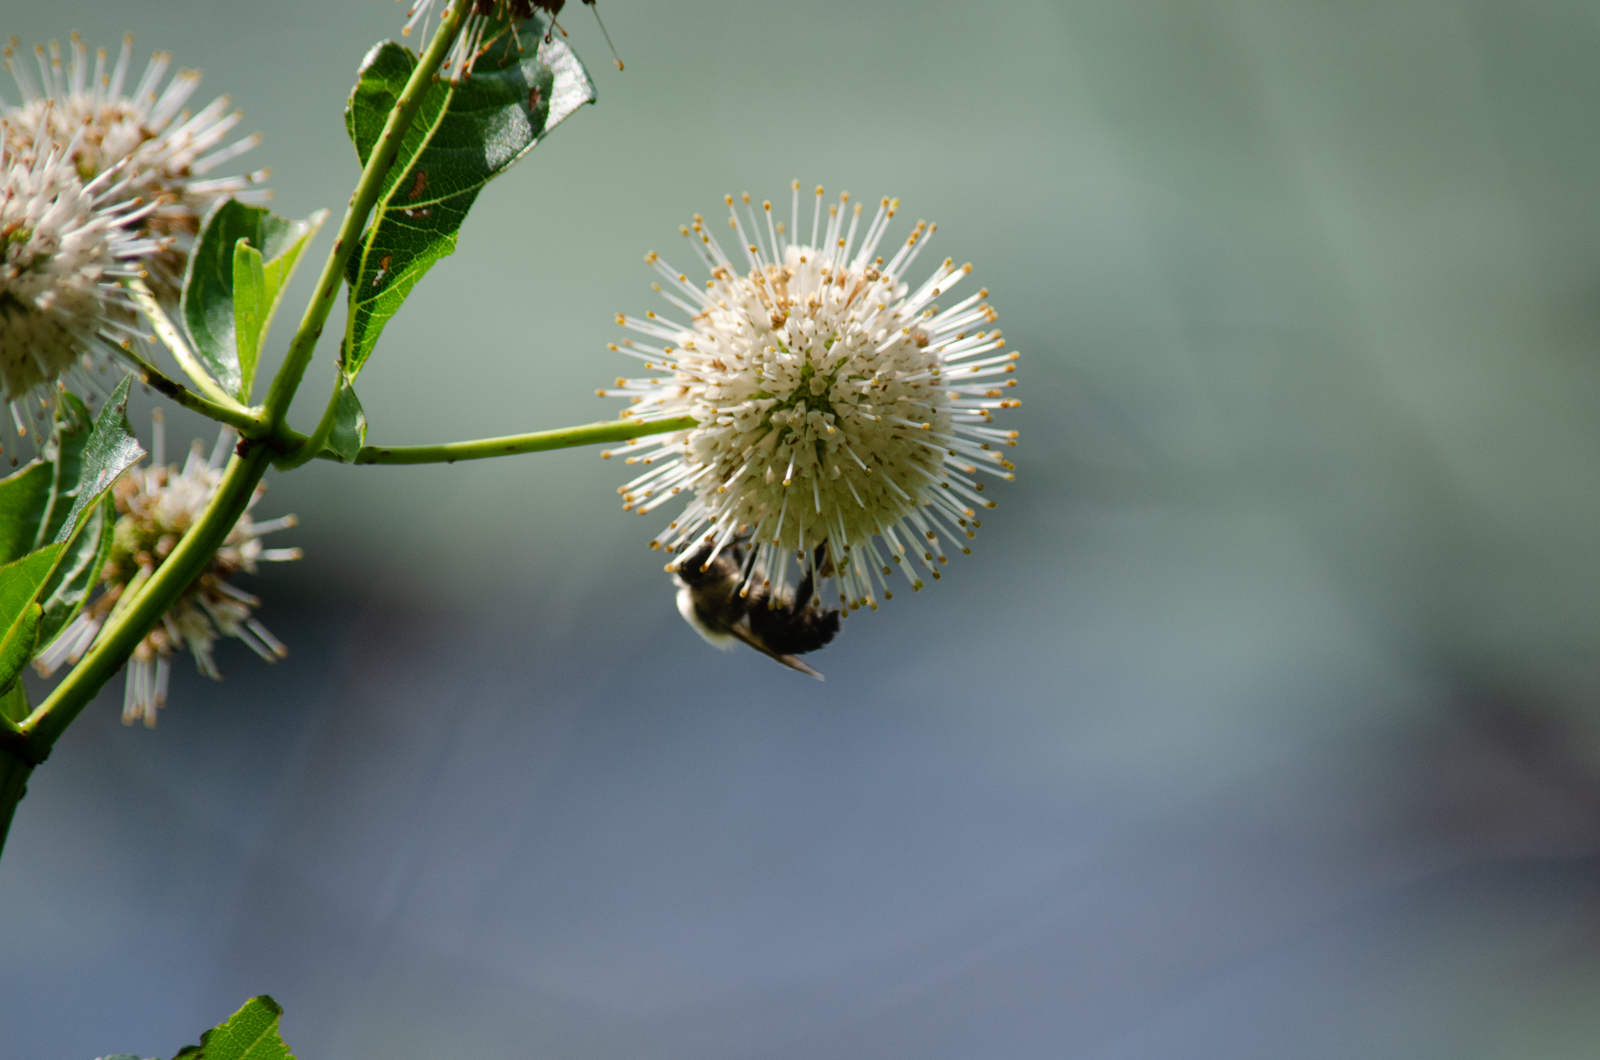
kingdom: Plantae
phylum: Tracheophyta
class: Magnoliopsida
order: Gentianales
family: Rubiaceae
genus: Cephalanthus
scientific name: Cephalanthus occidentalis
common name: Button-willow
